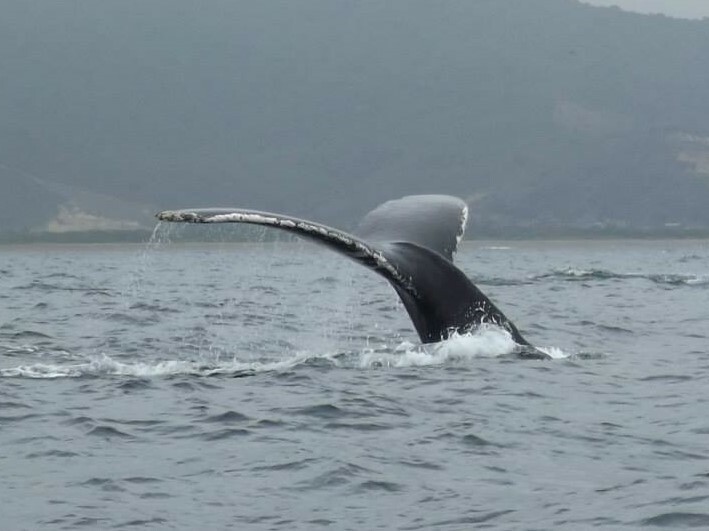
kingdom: Animalia
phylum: Chordata
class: Mammalia
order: Cetacea
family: Balaenopteridae
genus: Megaptera
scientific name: Megaptera novaeangliae
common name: Humpback whale
